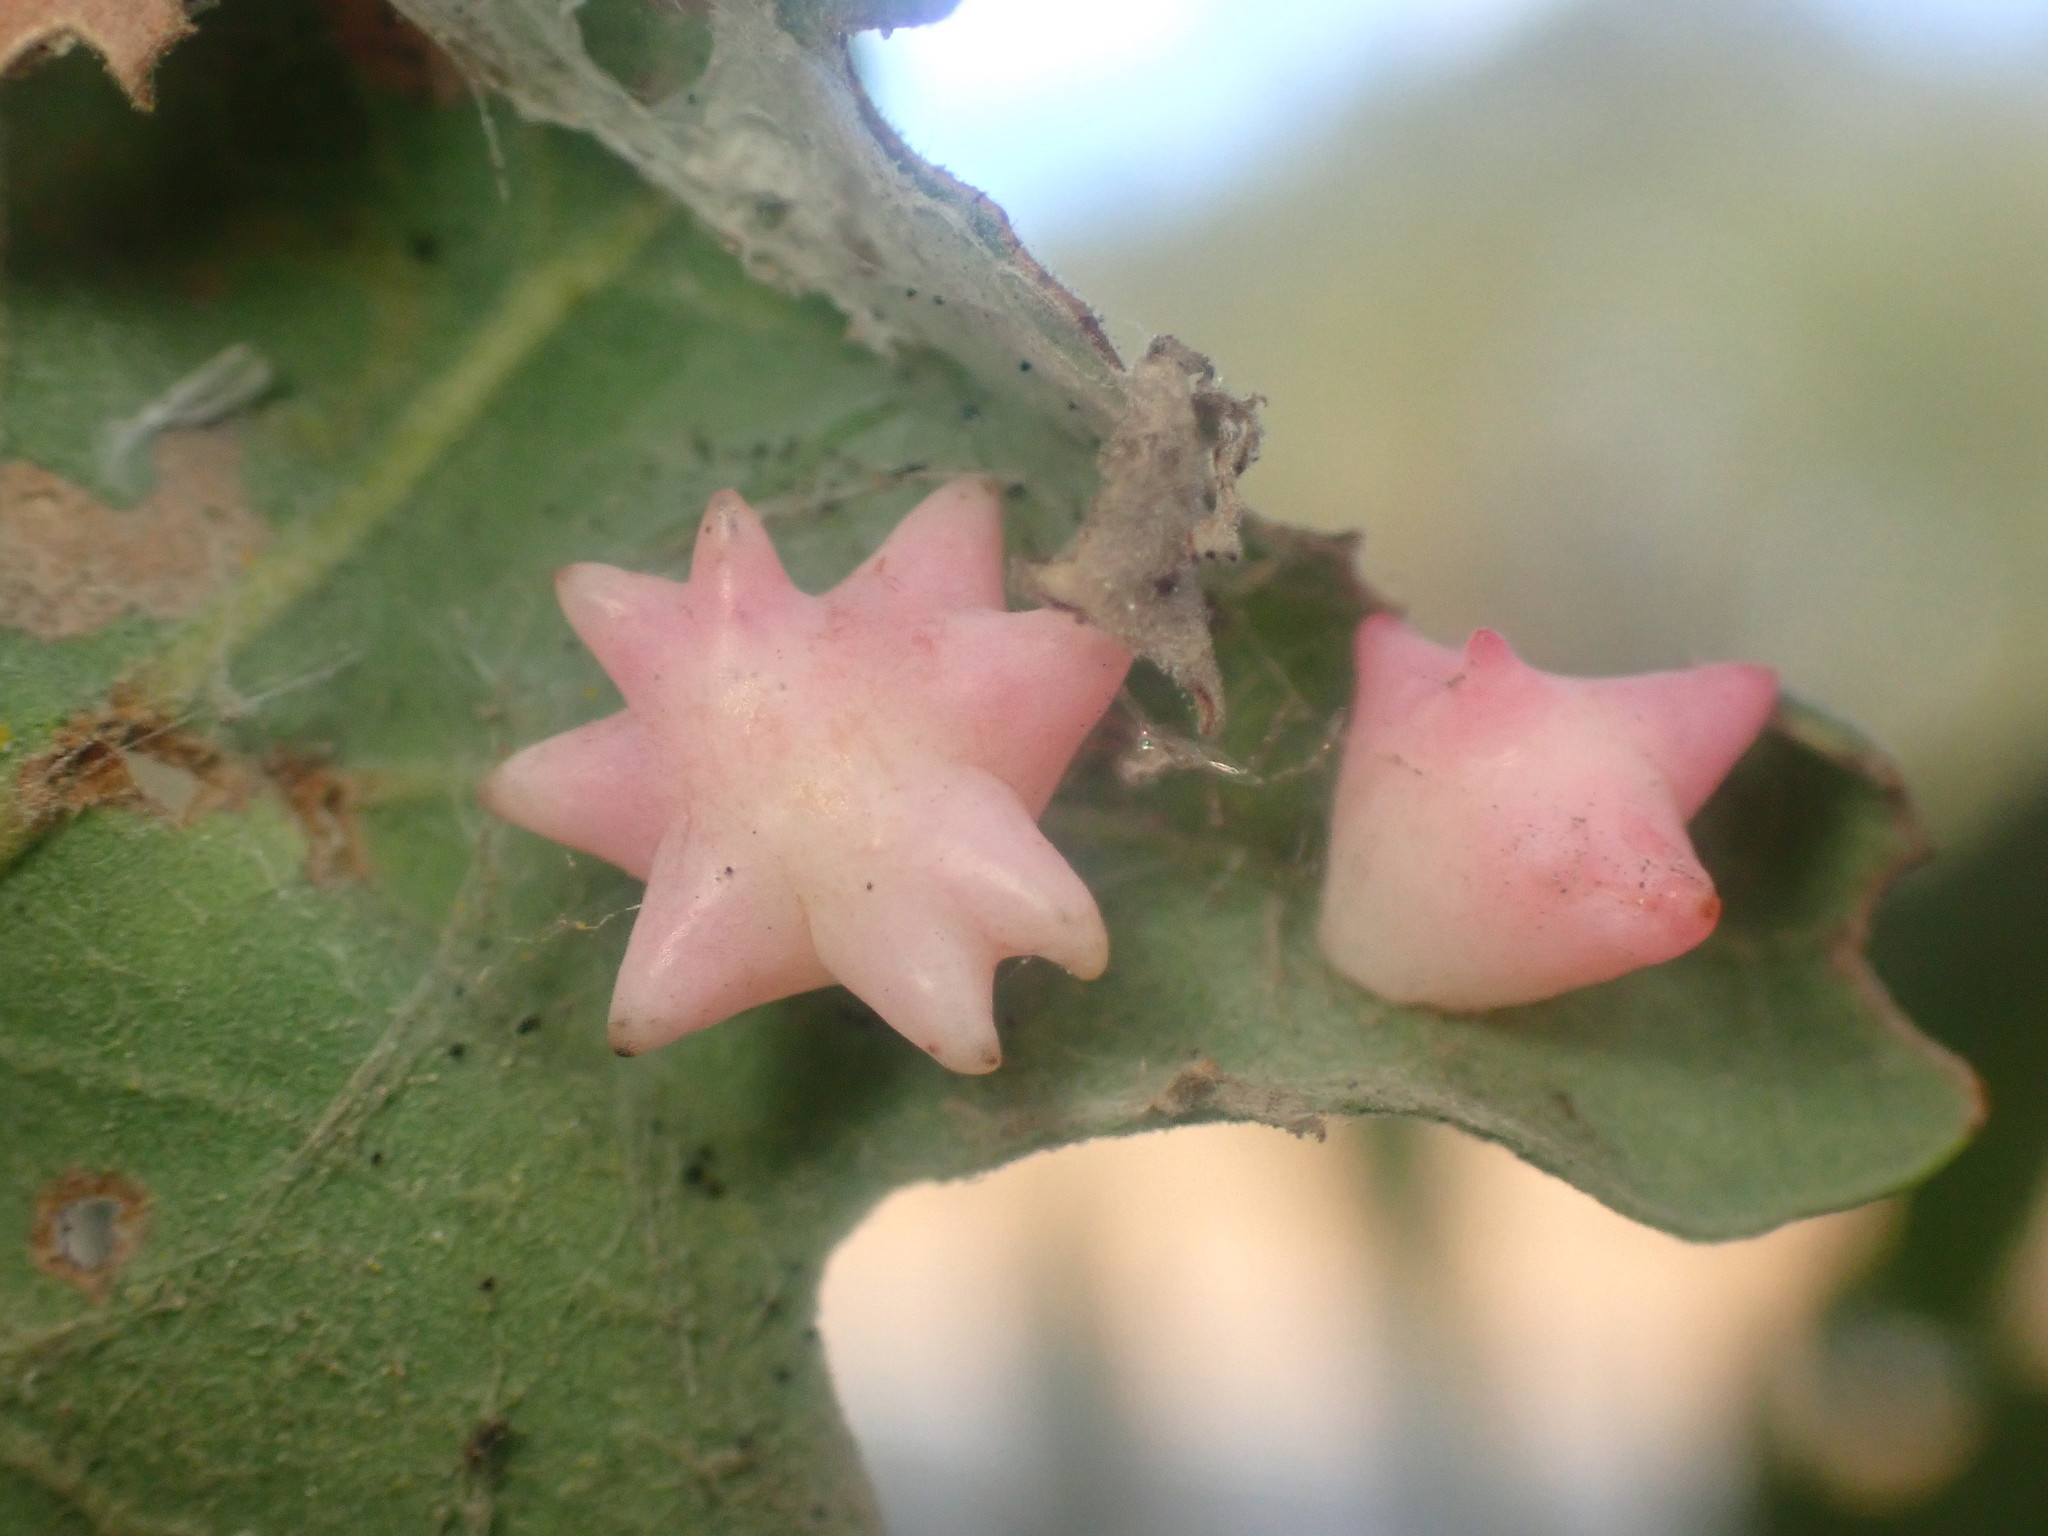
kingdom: Animalia
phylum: Arthropoda
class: Insecta
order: Hymenoptera
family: Cynipidae
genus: Cynips
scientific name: Cynips douglasi
